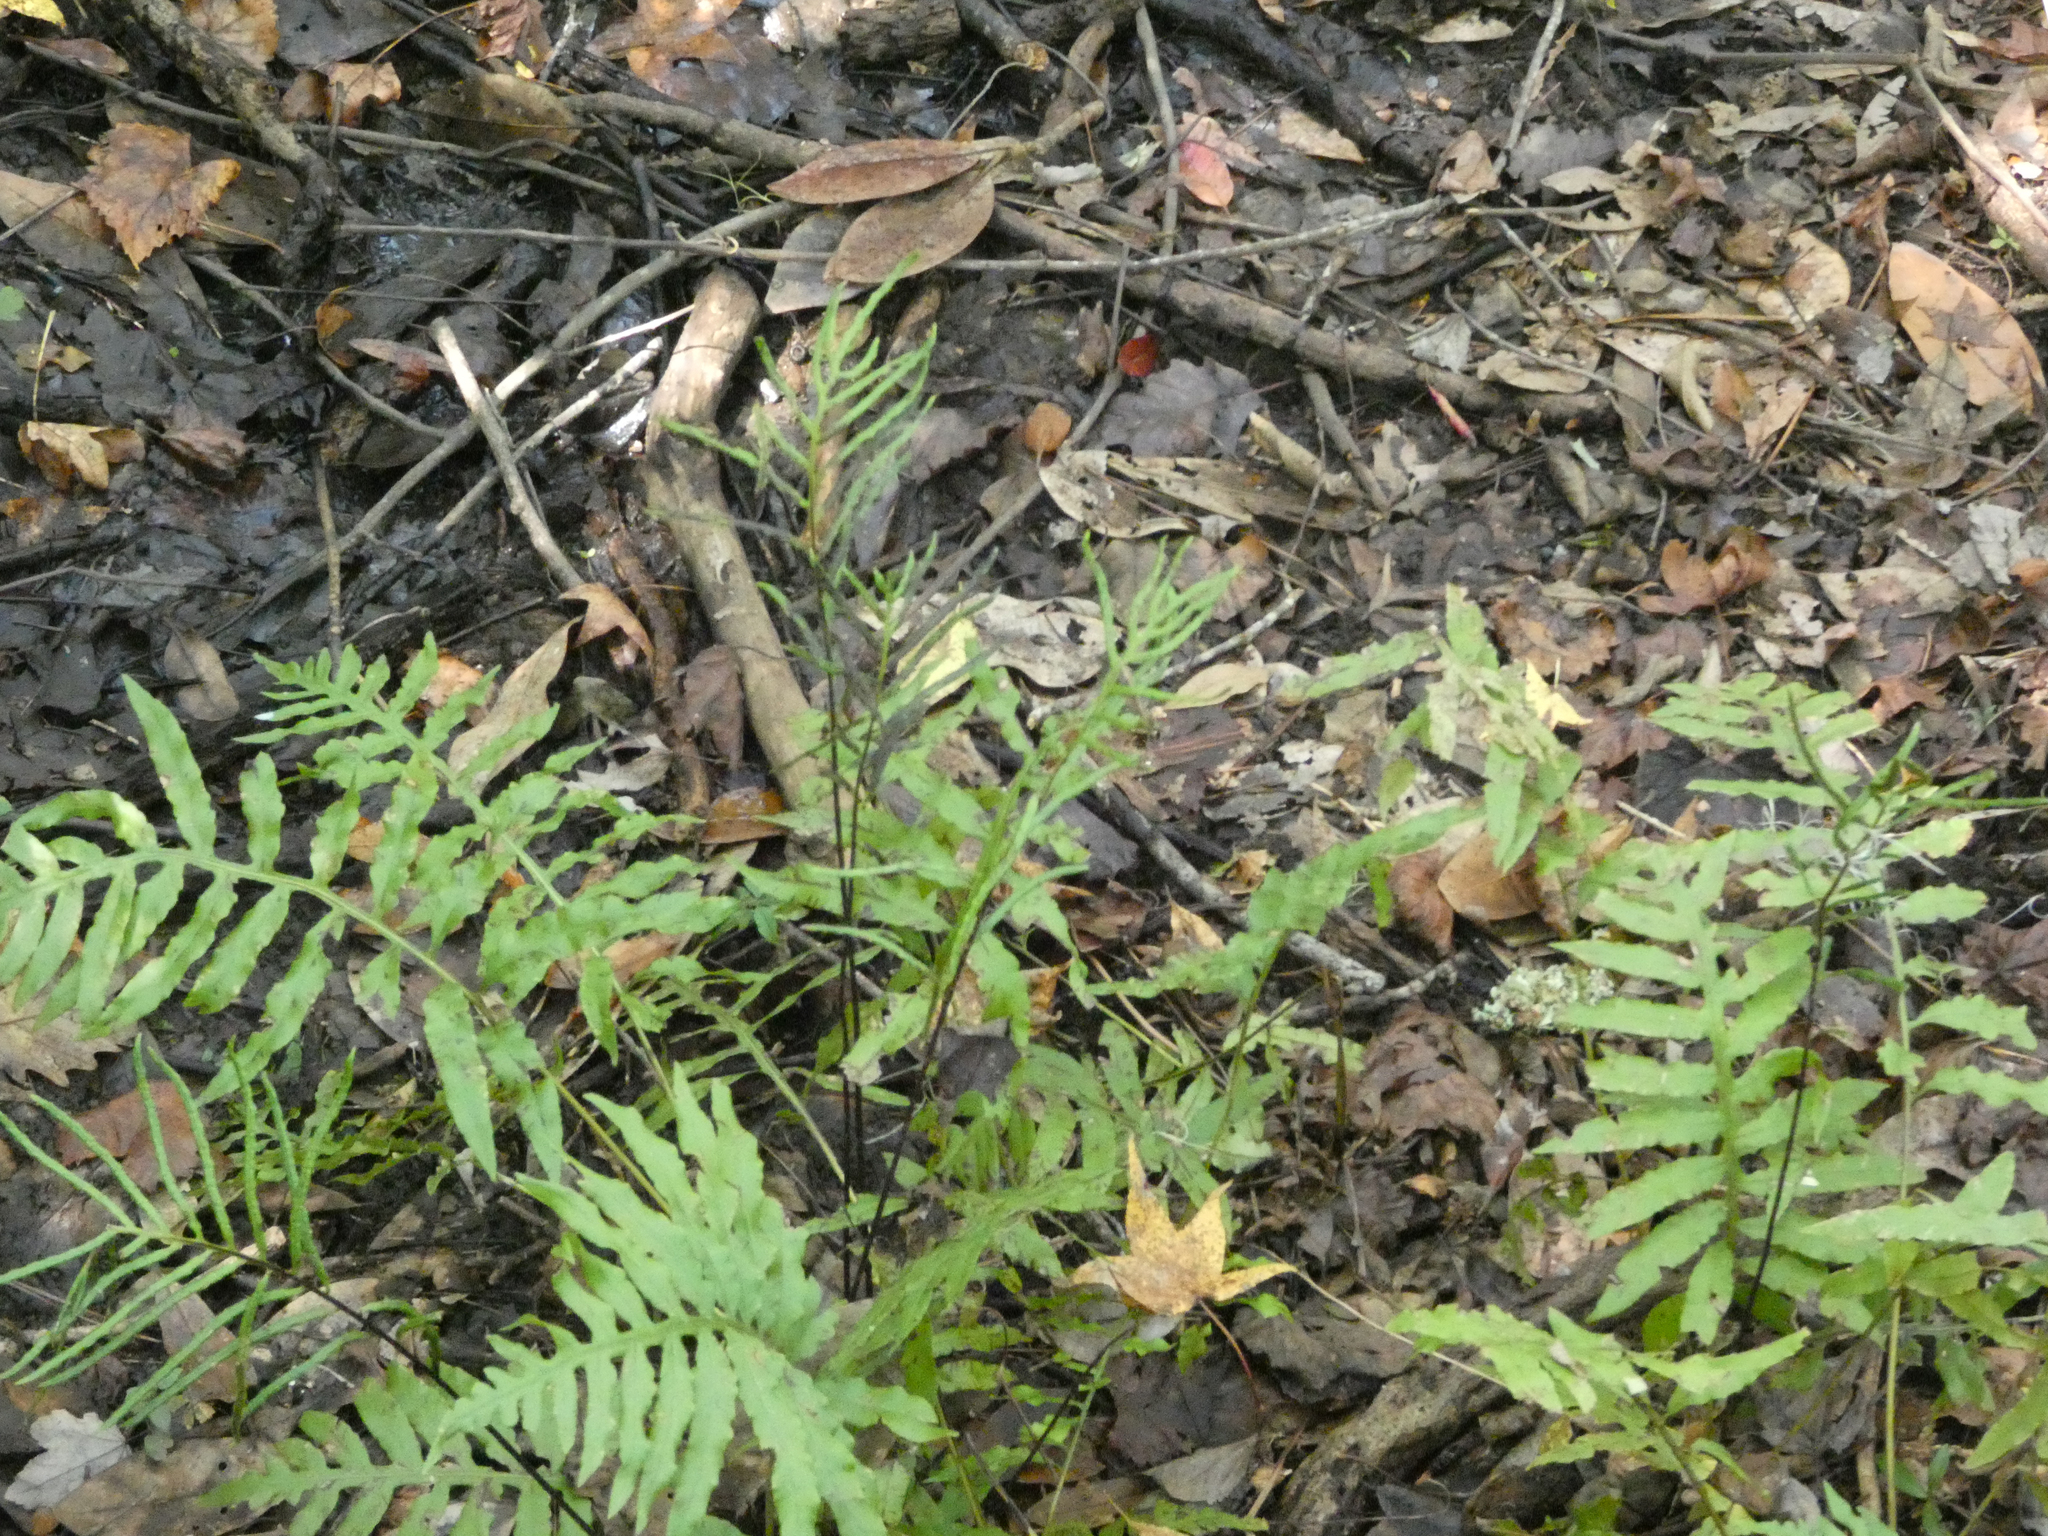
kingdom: Plantae
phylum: Tracheophyta
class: Polypodiopsida
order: Polypodiales
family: Blechnaceae
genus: Lorinseria
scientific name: Lorinseria areolata
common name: Dwarf chain fern
